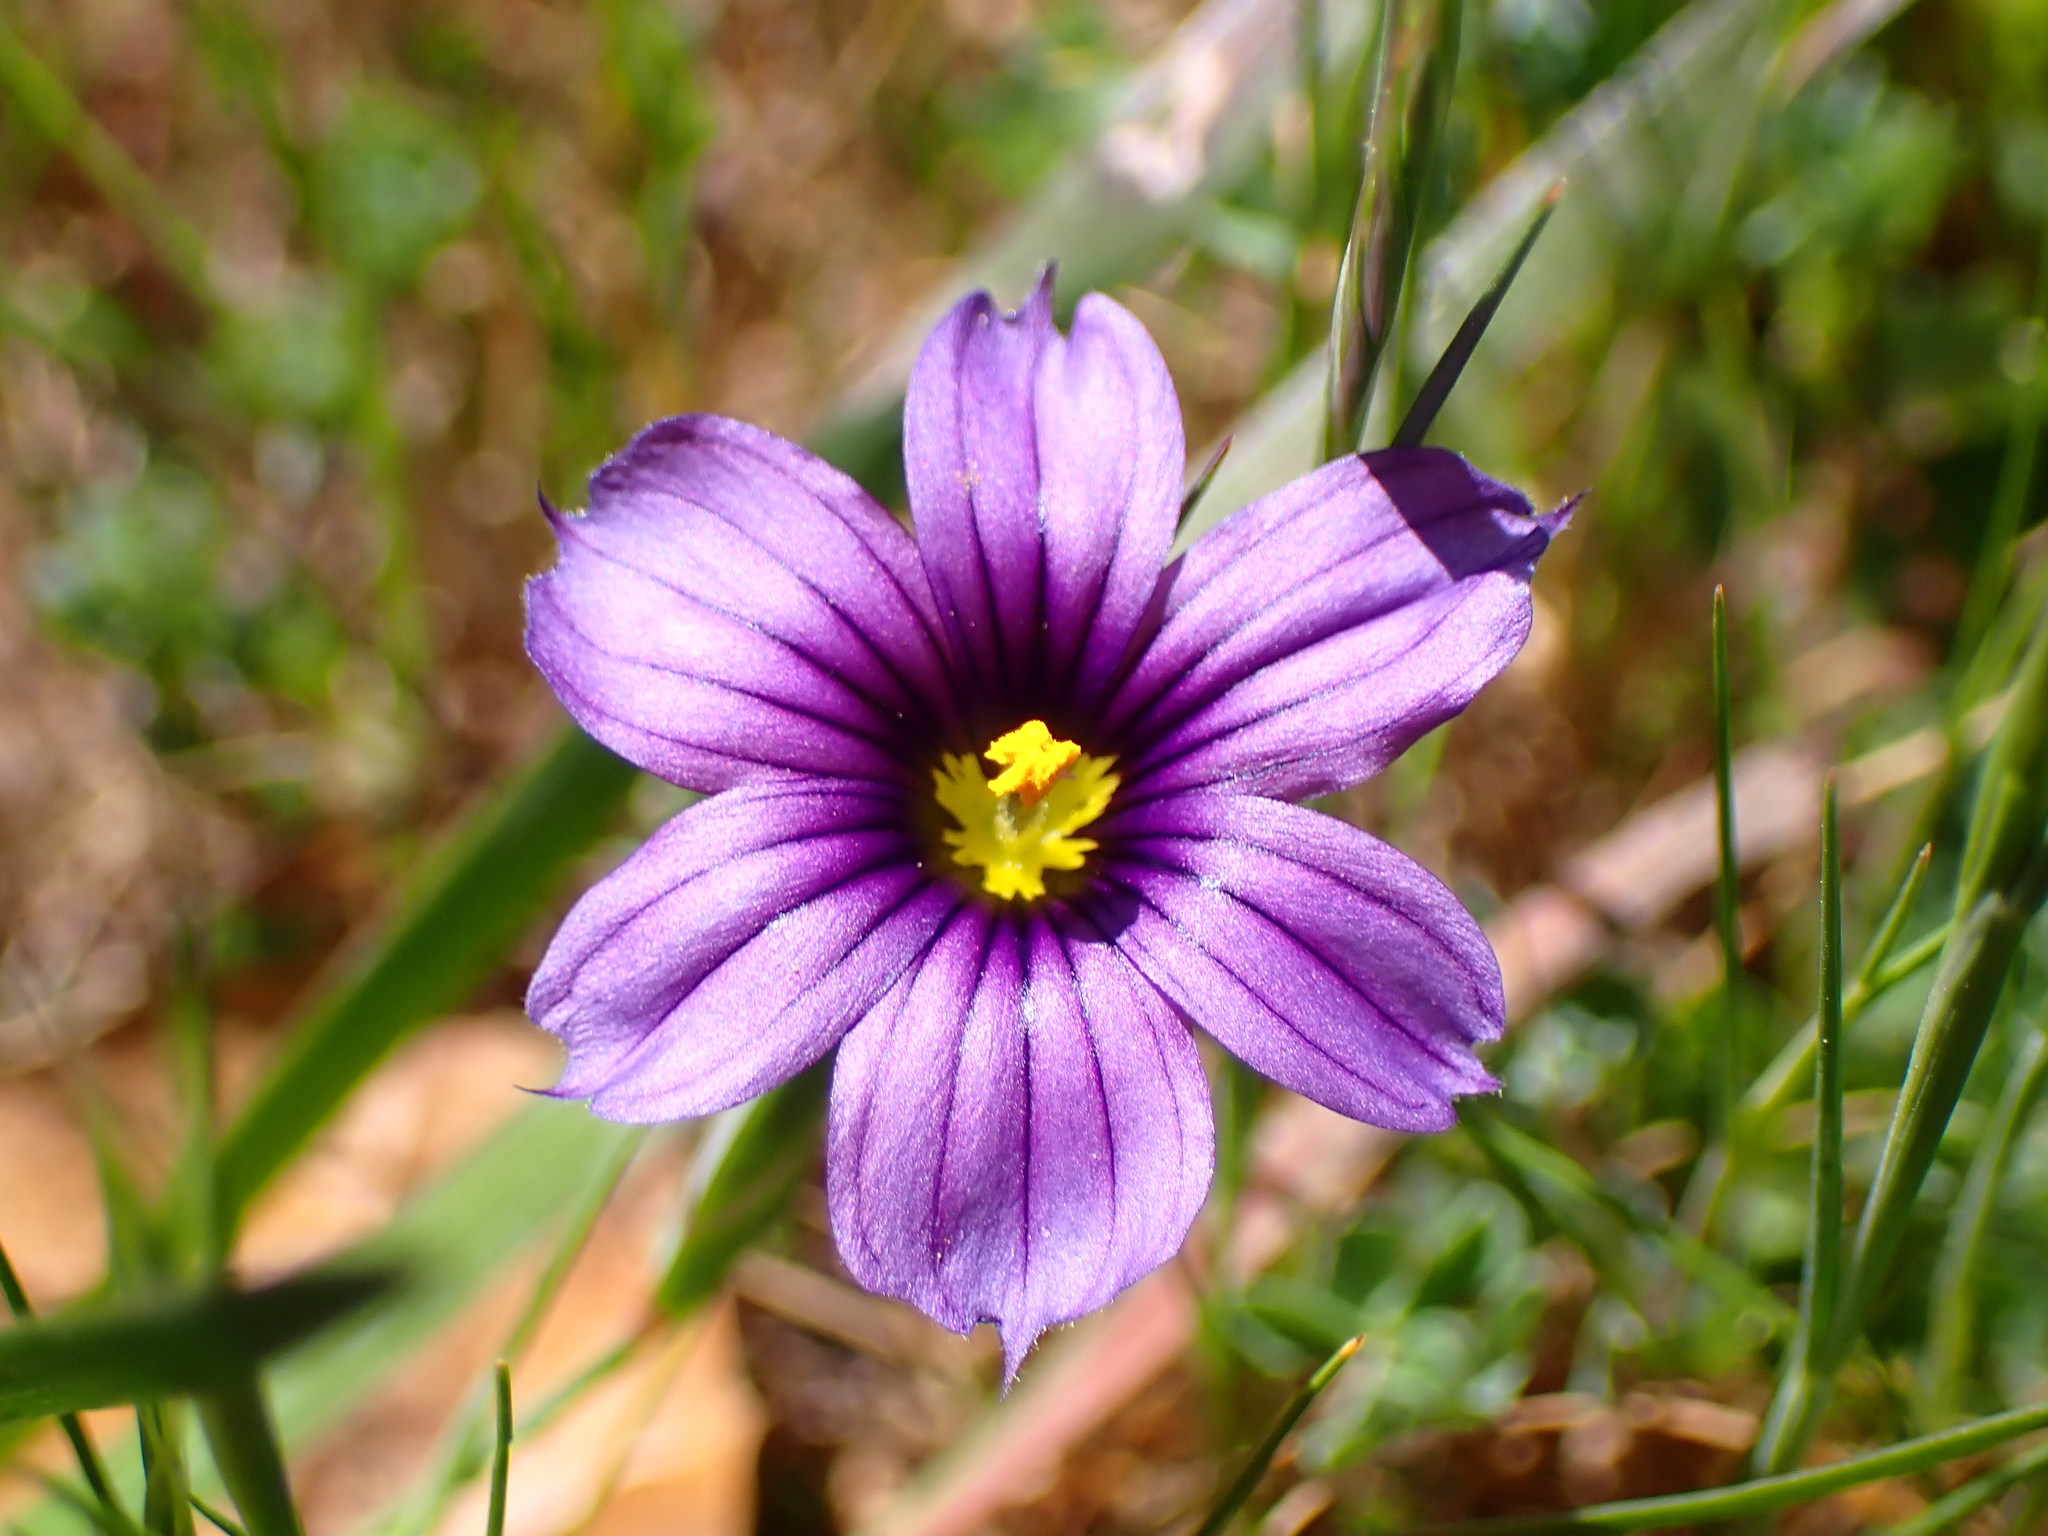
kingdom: Plantae
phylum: Tracheophyta
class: Liliopsida
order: Asparagales
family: Iridaceae
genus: Sisyrinchium
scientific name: Sisyrinchium bellum
